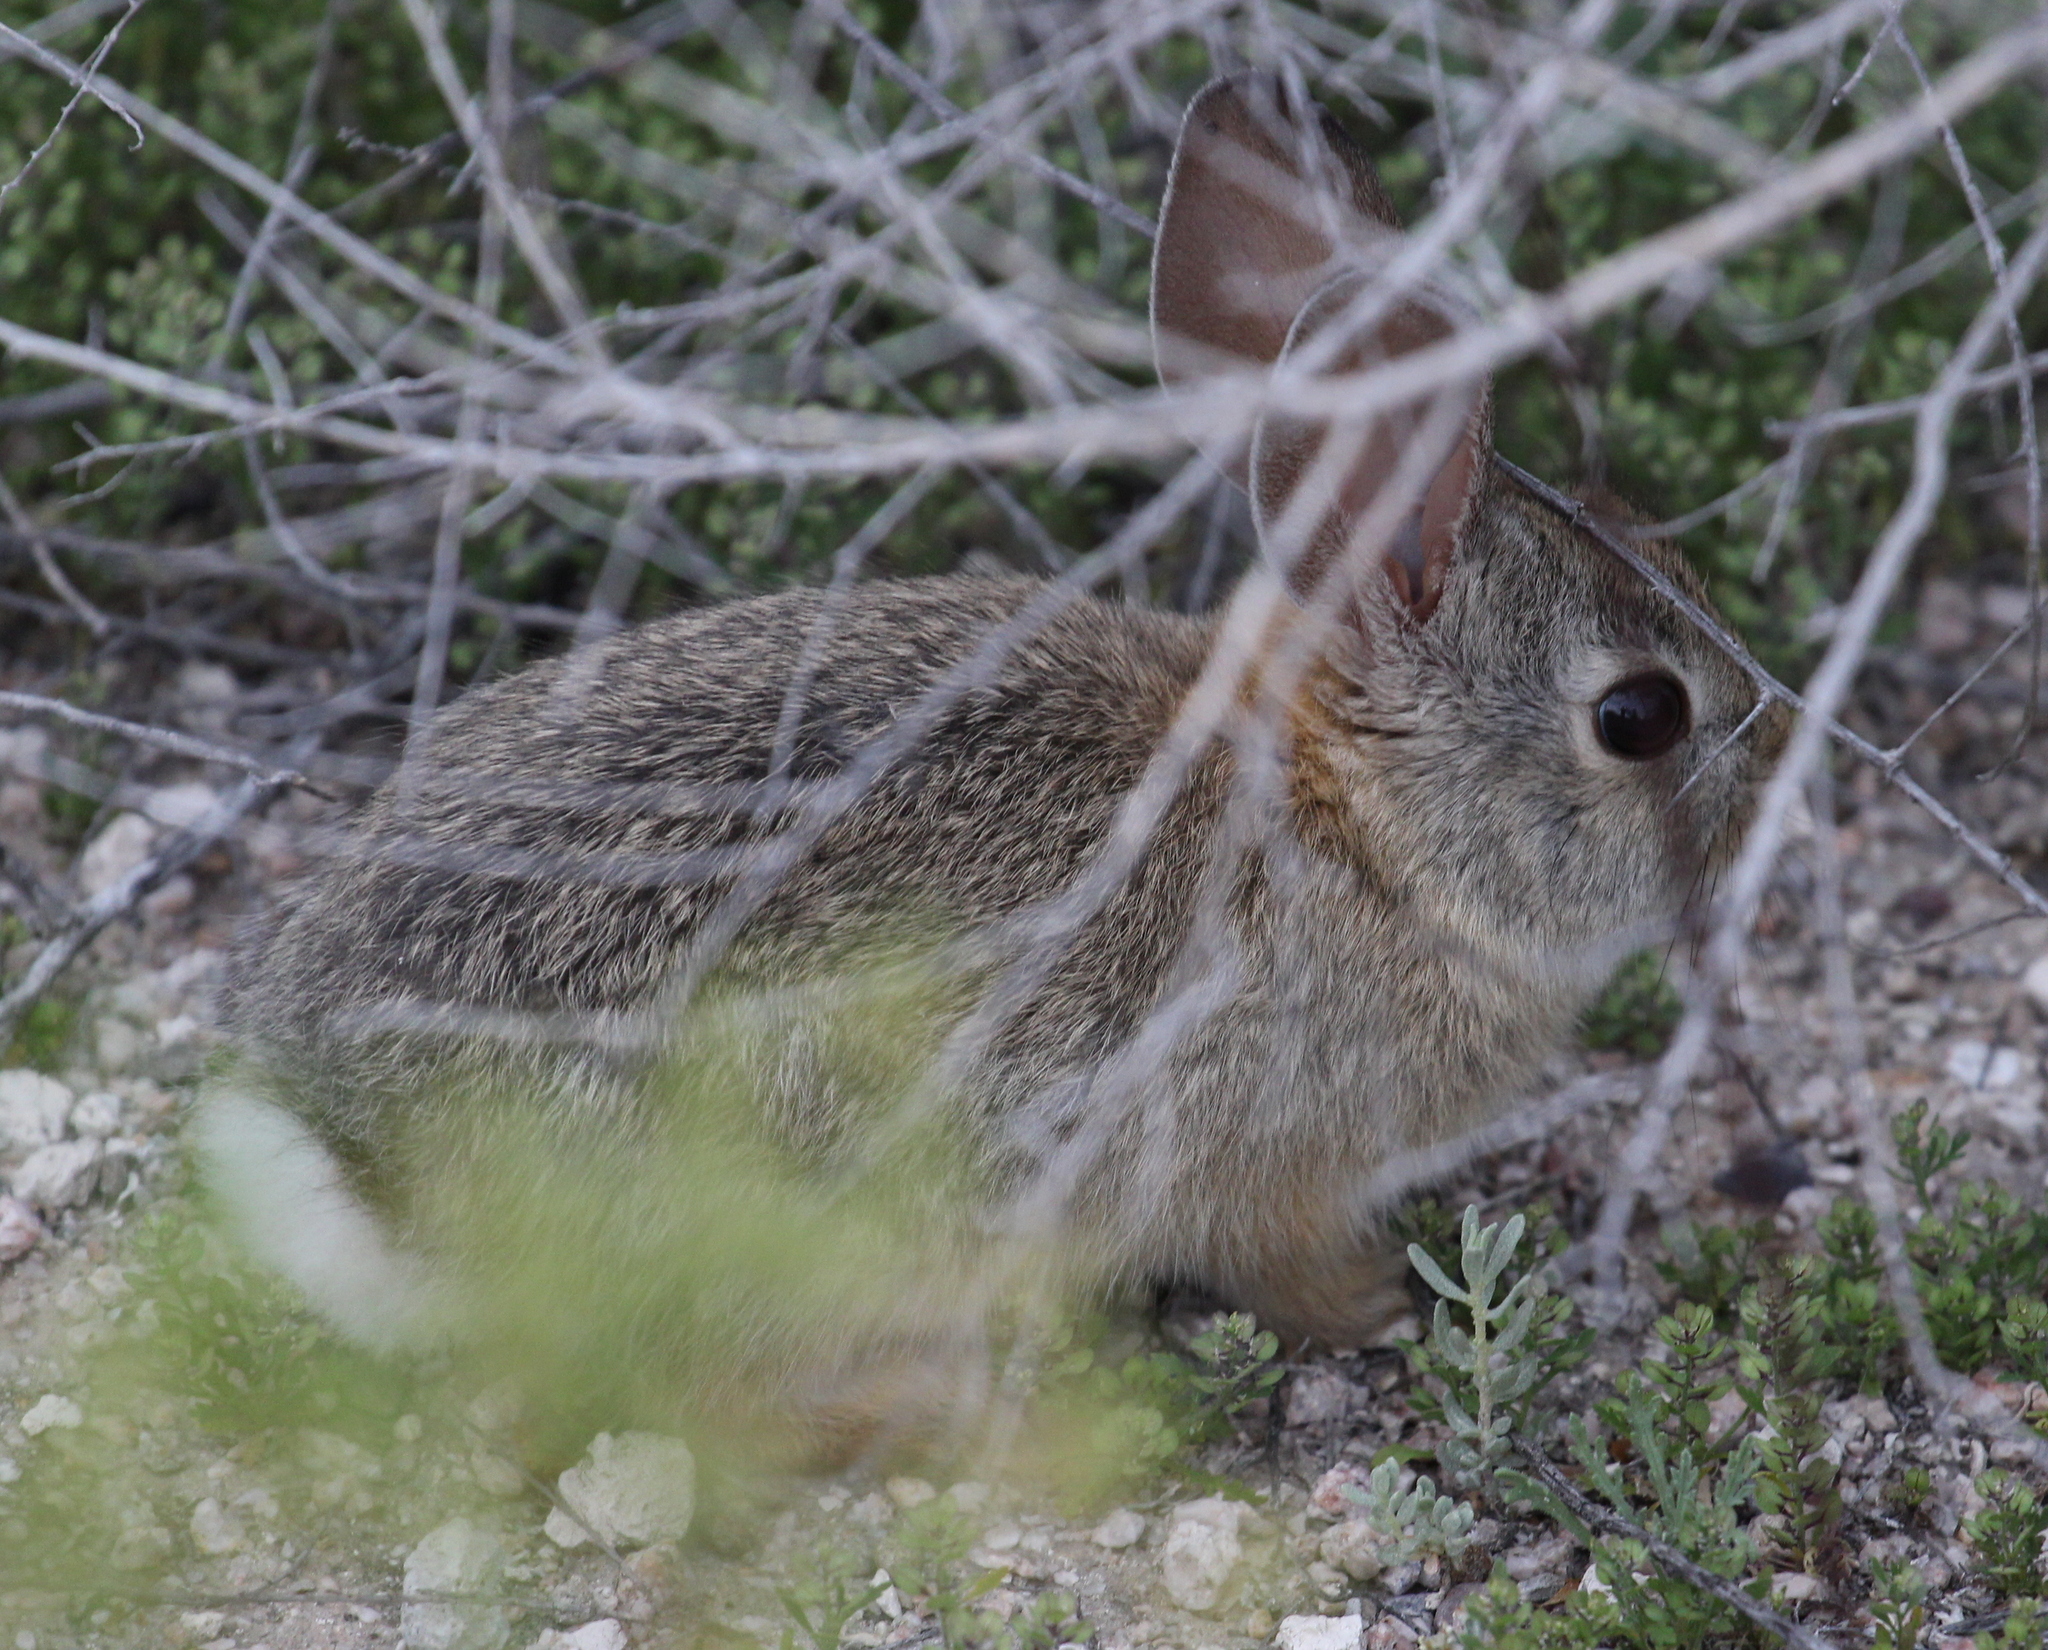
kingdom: Animalia
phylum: Chordata
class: Mammalia
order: Lagomorpha
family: Leporidae
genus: Sylvilagus
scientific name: Sylvilagus audubonii
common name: Desert cottontail
